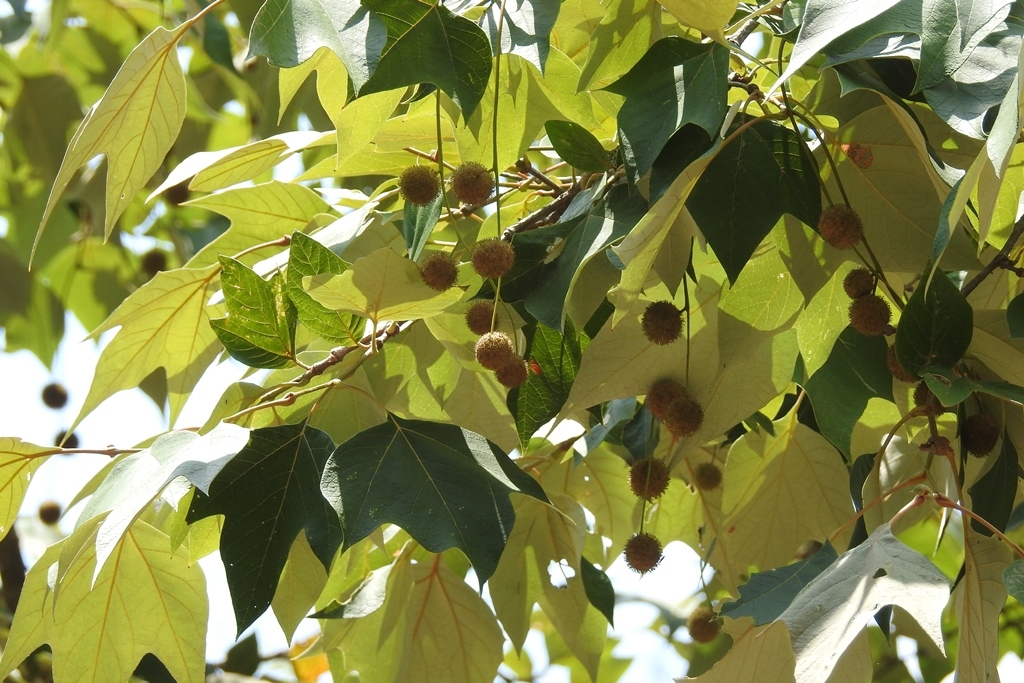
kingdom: Plantae
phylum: Tracheophyta
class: Magnoliopsida
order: Proteales
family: Platanaceae
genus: Platanus
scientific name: Platanus mexicana
